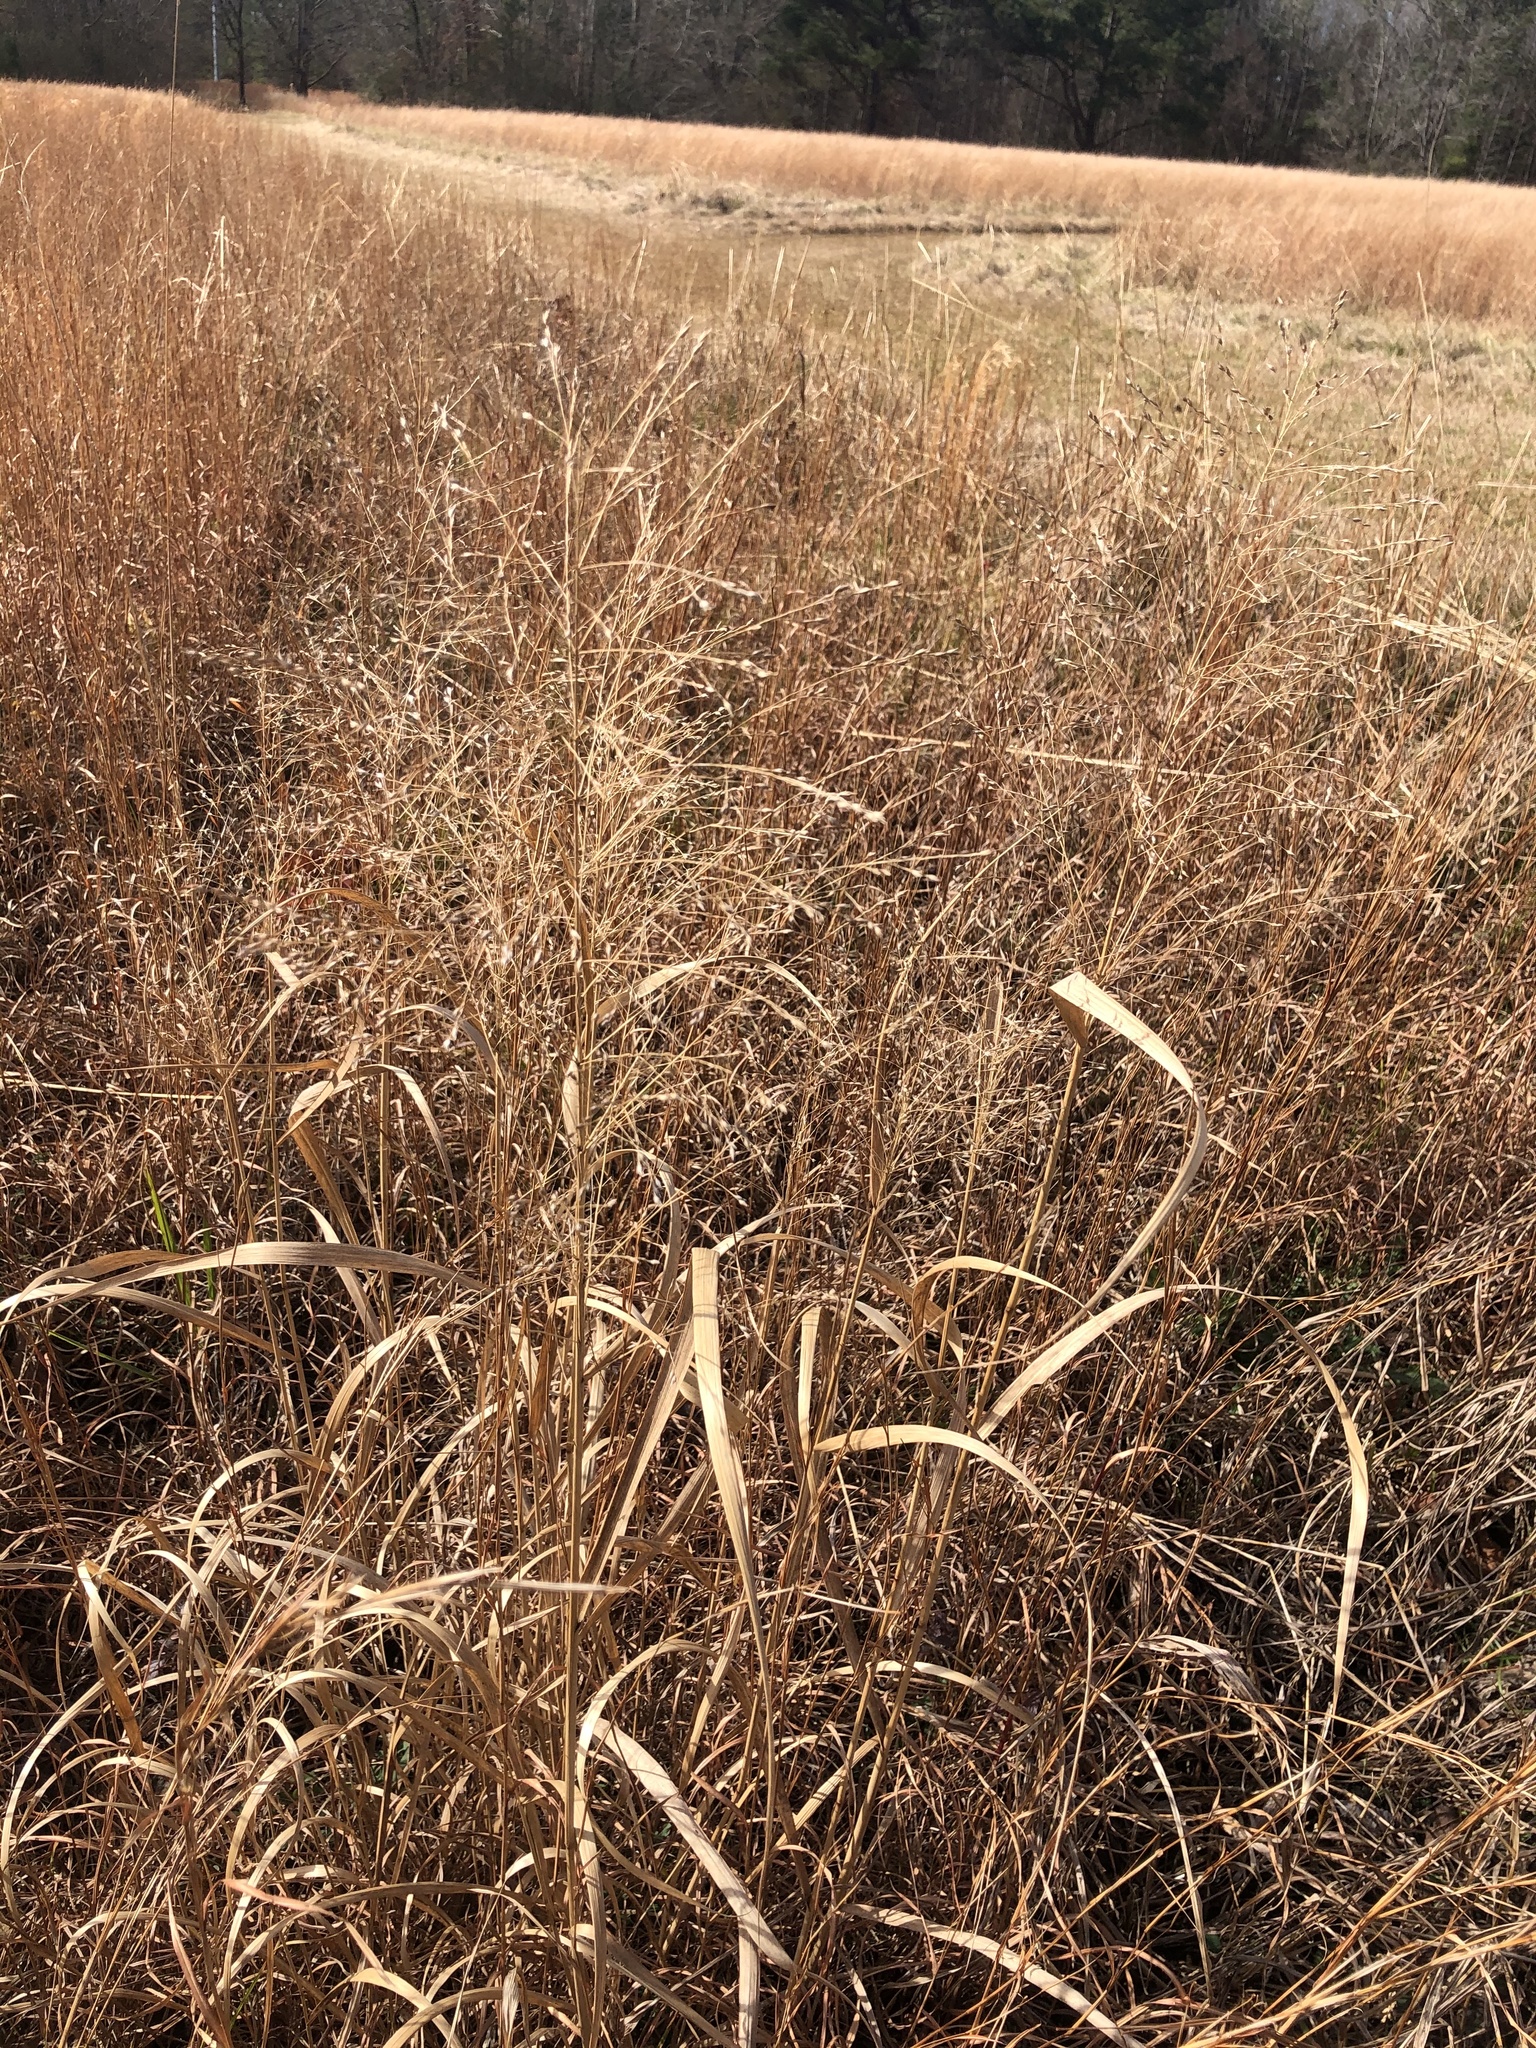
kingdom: Plantae
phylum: Tracheophyta
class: Liliopsida
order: Poales
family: Poaceae
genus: Panicum
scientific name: Panicum virgatum
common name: Switchgrass
